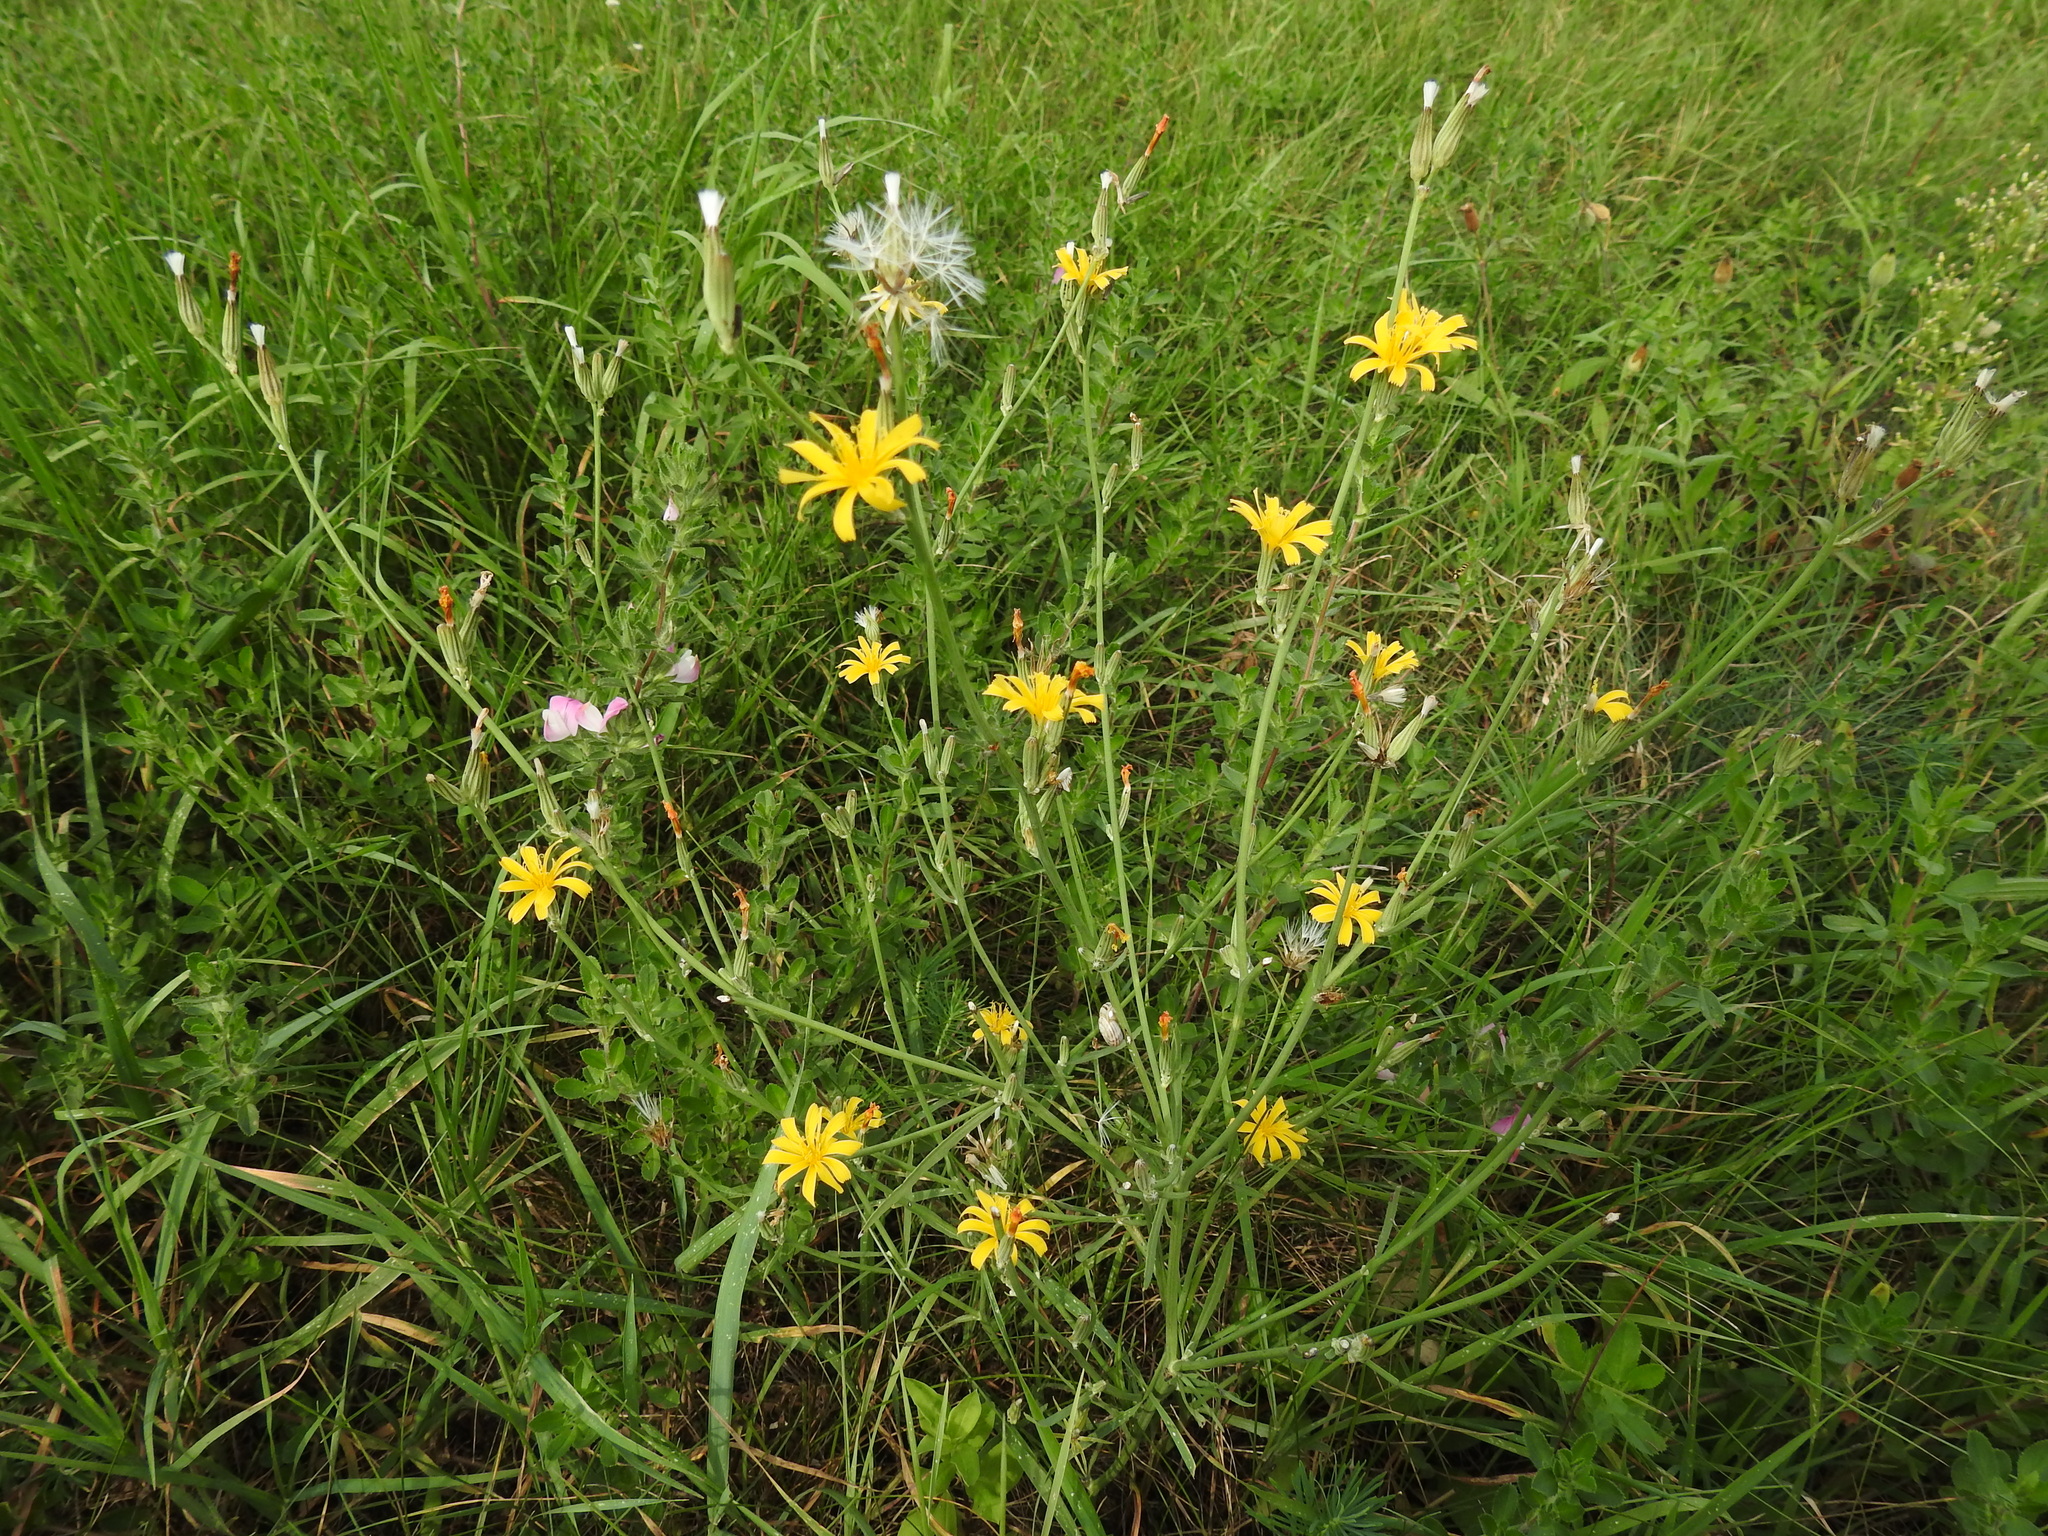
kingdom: Plantae
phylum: Tracheophyta
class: Magnoliopsida
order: Asterales
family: Asteraceae
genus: Chondrilla
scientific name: Chondrilla juncea
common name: Skeleton weed
